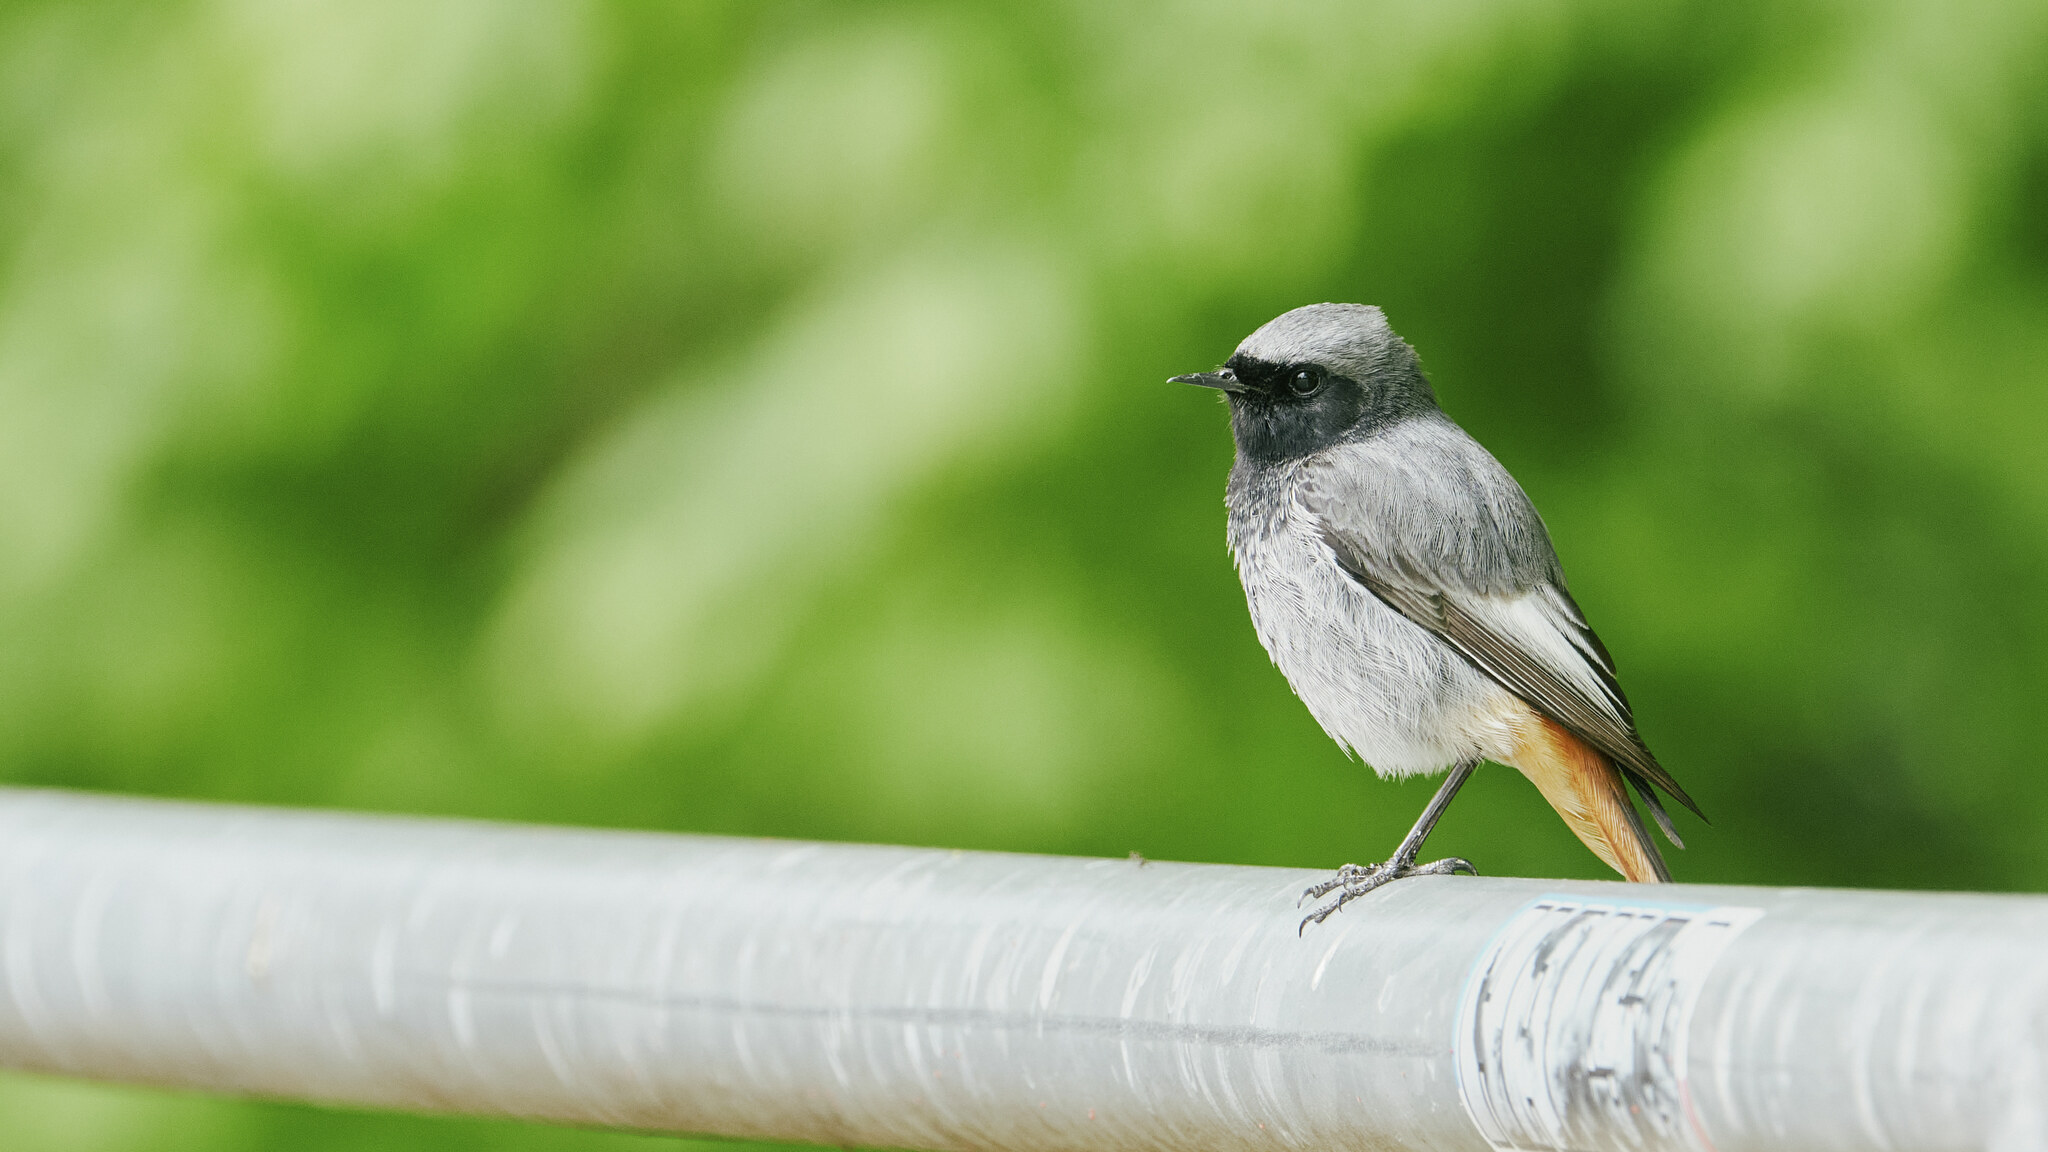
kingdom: Animalia
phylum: Chordata
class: Aves
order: Passeriformes
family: Muscicapidae
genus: Phoenicurus
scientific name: Phoenicurus ochruros
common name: Black redstart
